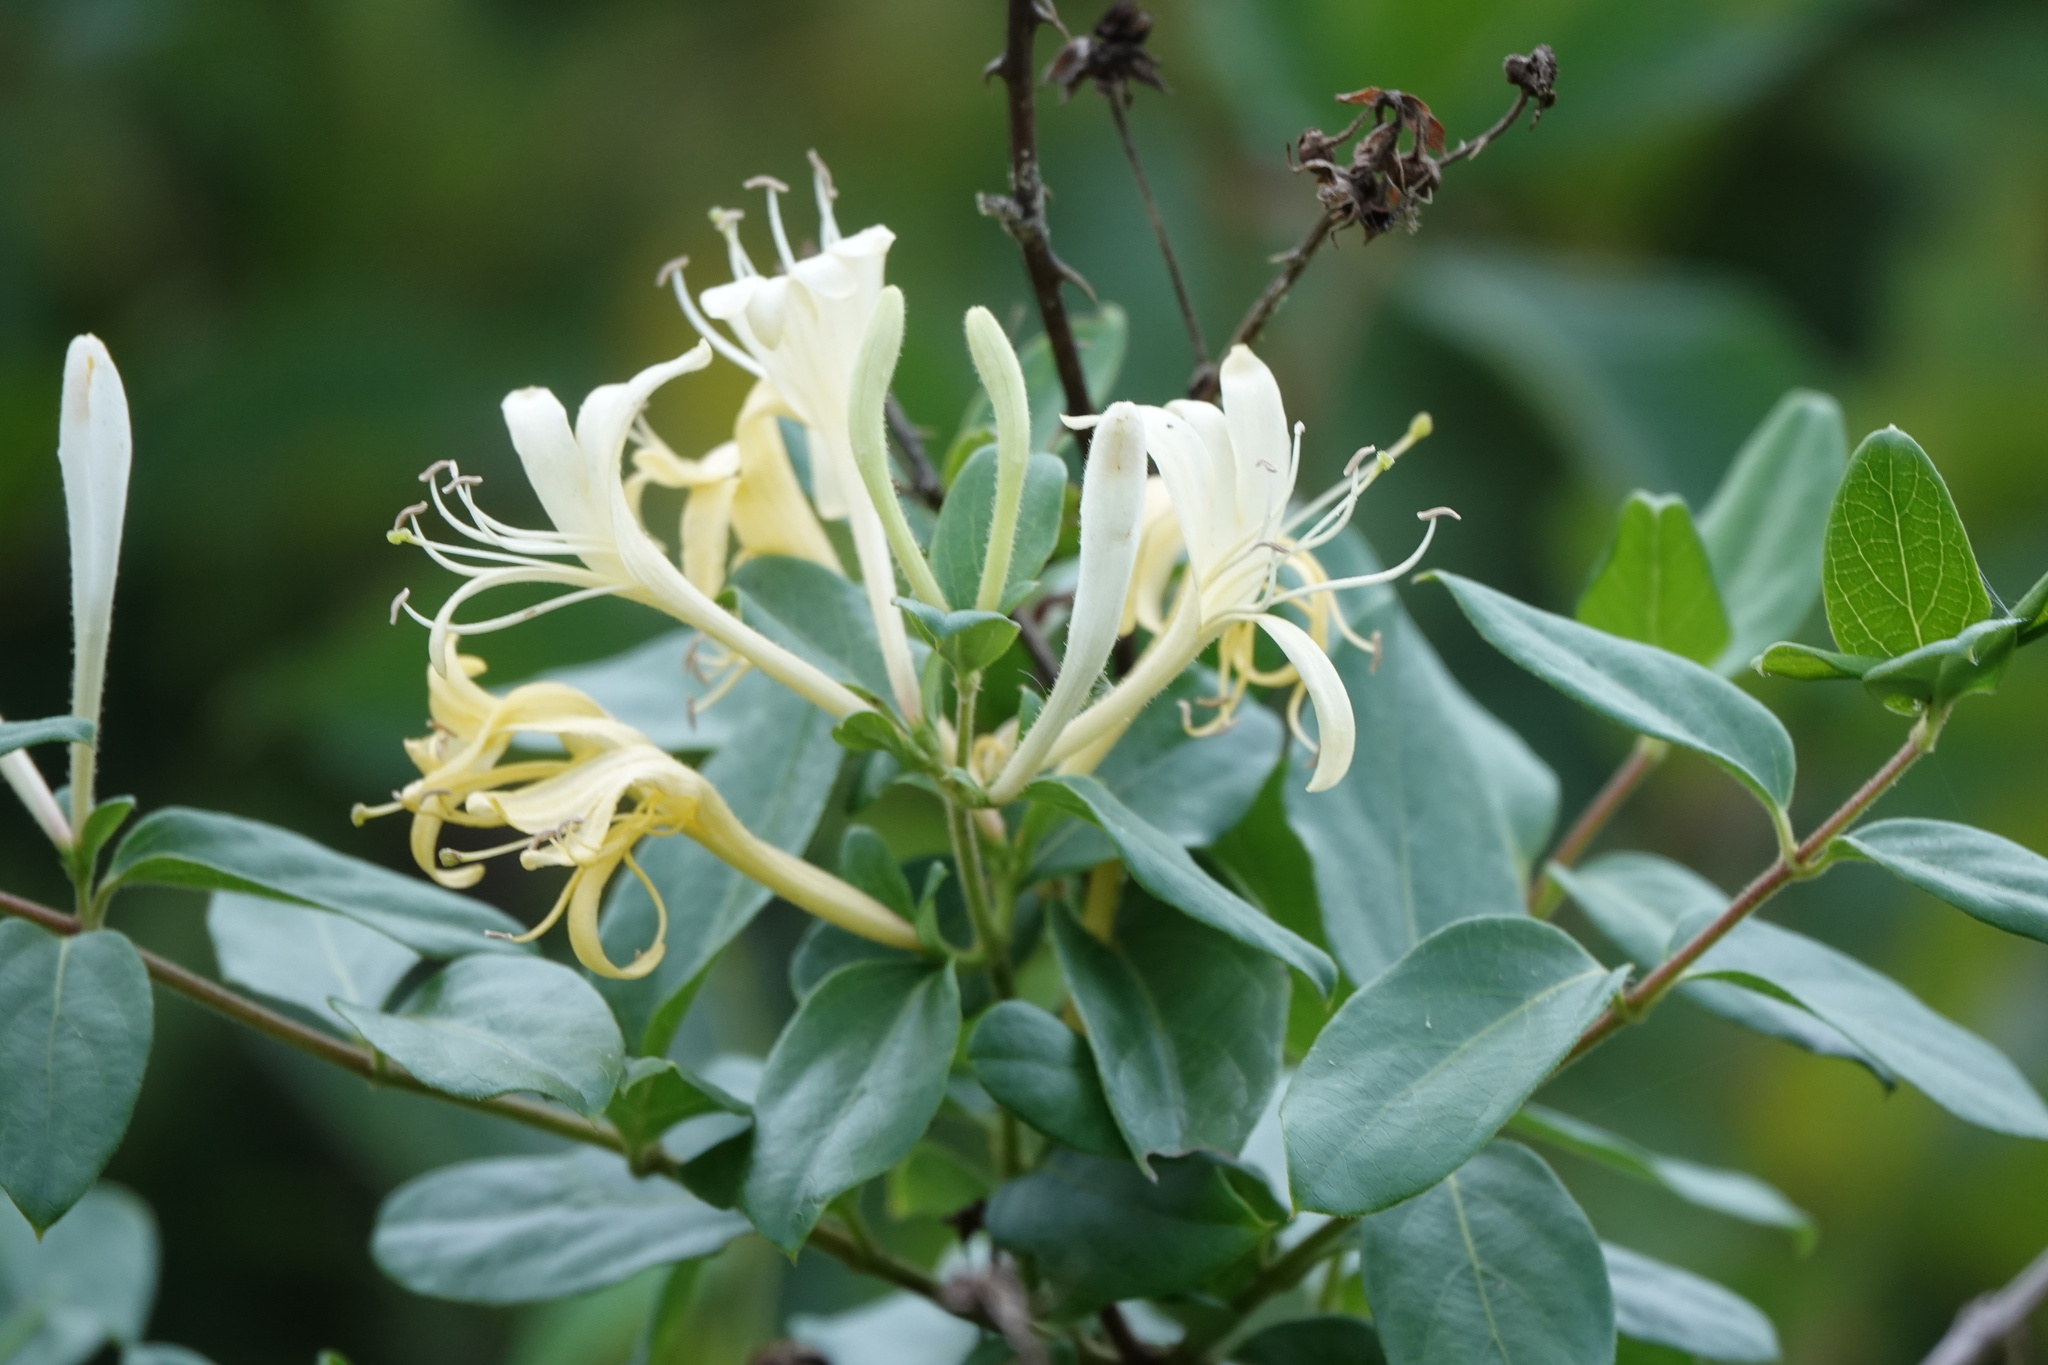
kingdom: Plantae
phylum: Tracheophyta
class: Magnoliopsida
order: Dipsacales
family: Caprifoliaceae
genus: Lonicera
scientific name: Lonicera japonica
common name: Japanese honeysuckle
